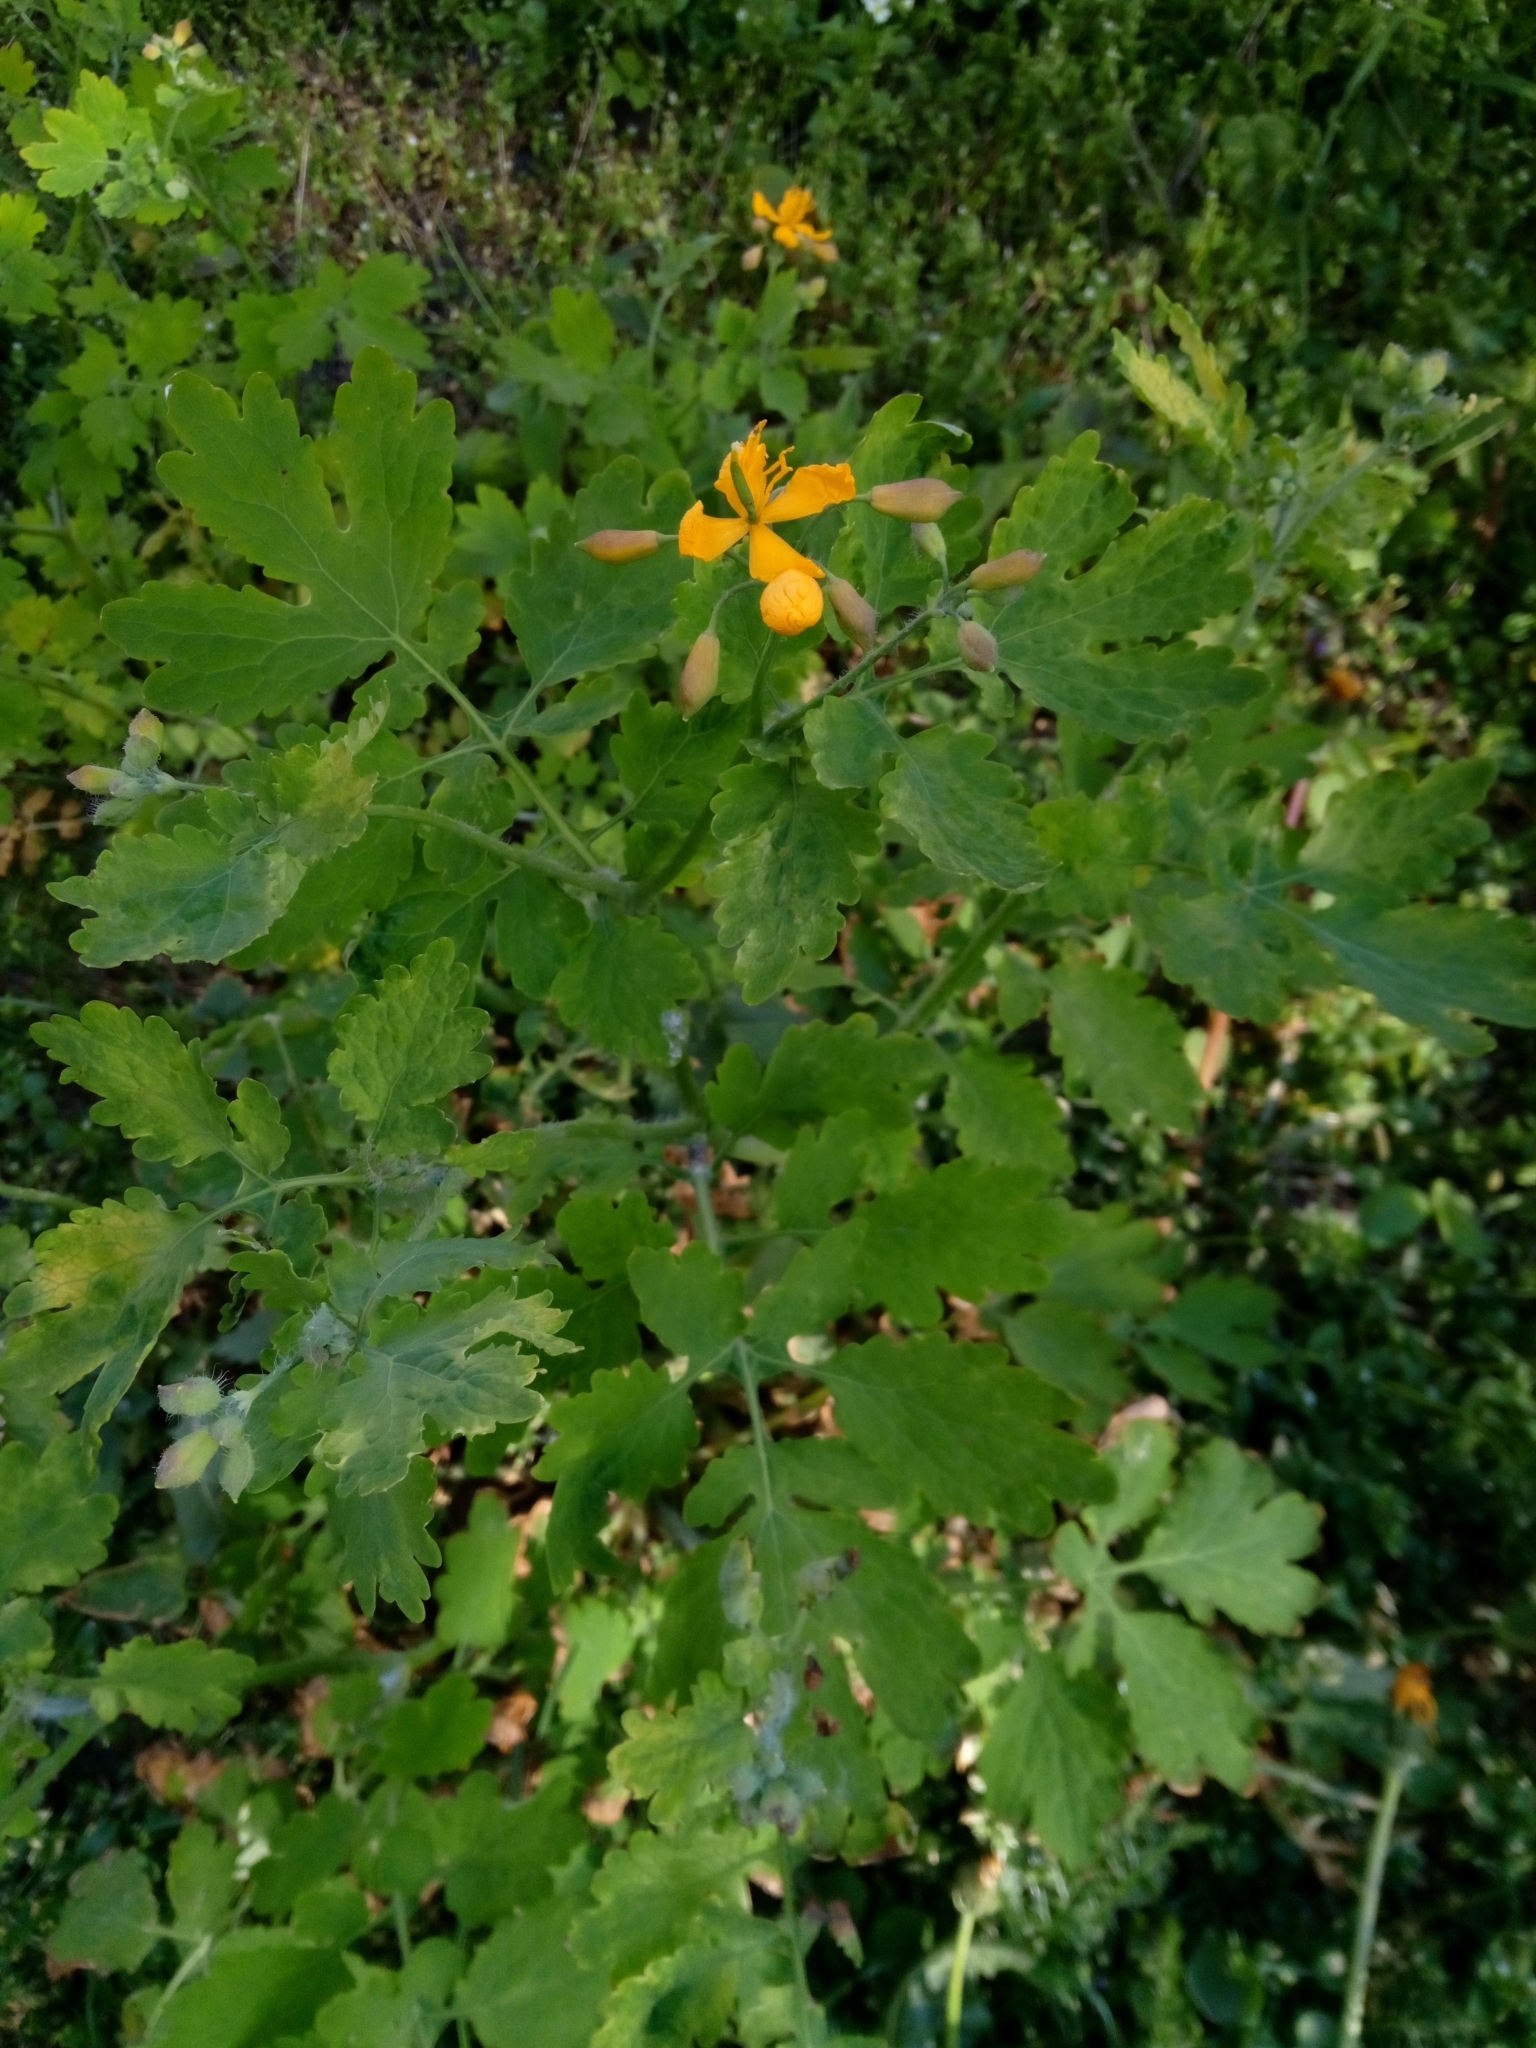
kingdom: Plantae
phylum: Tracheophyta
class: Magnoliopsida
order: Ranunculales
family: Papaveraceae
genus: Chelidonium
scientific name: Chelidonium majus
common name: Greater celandine
